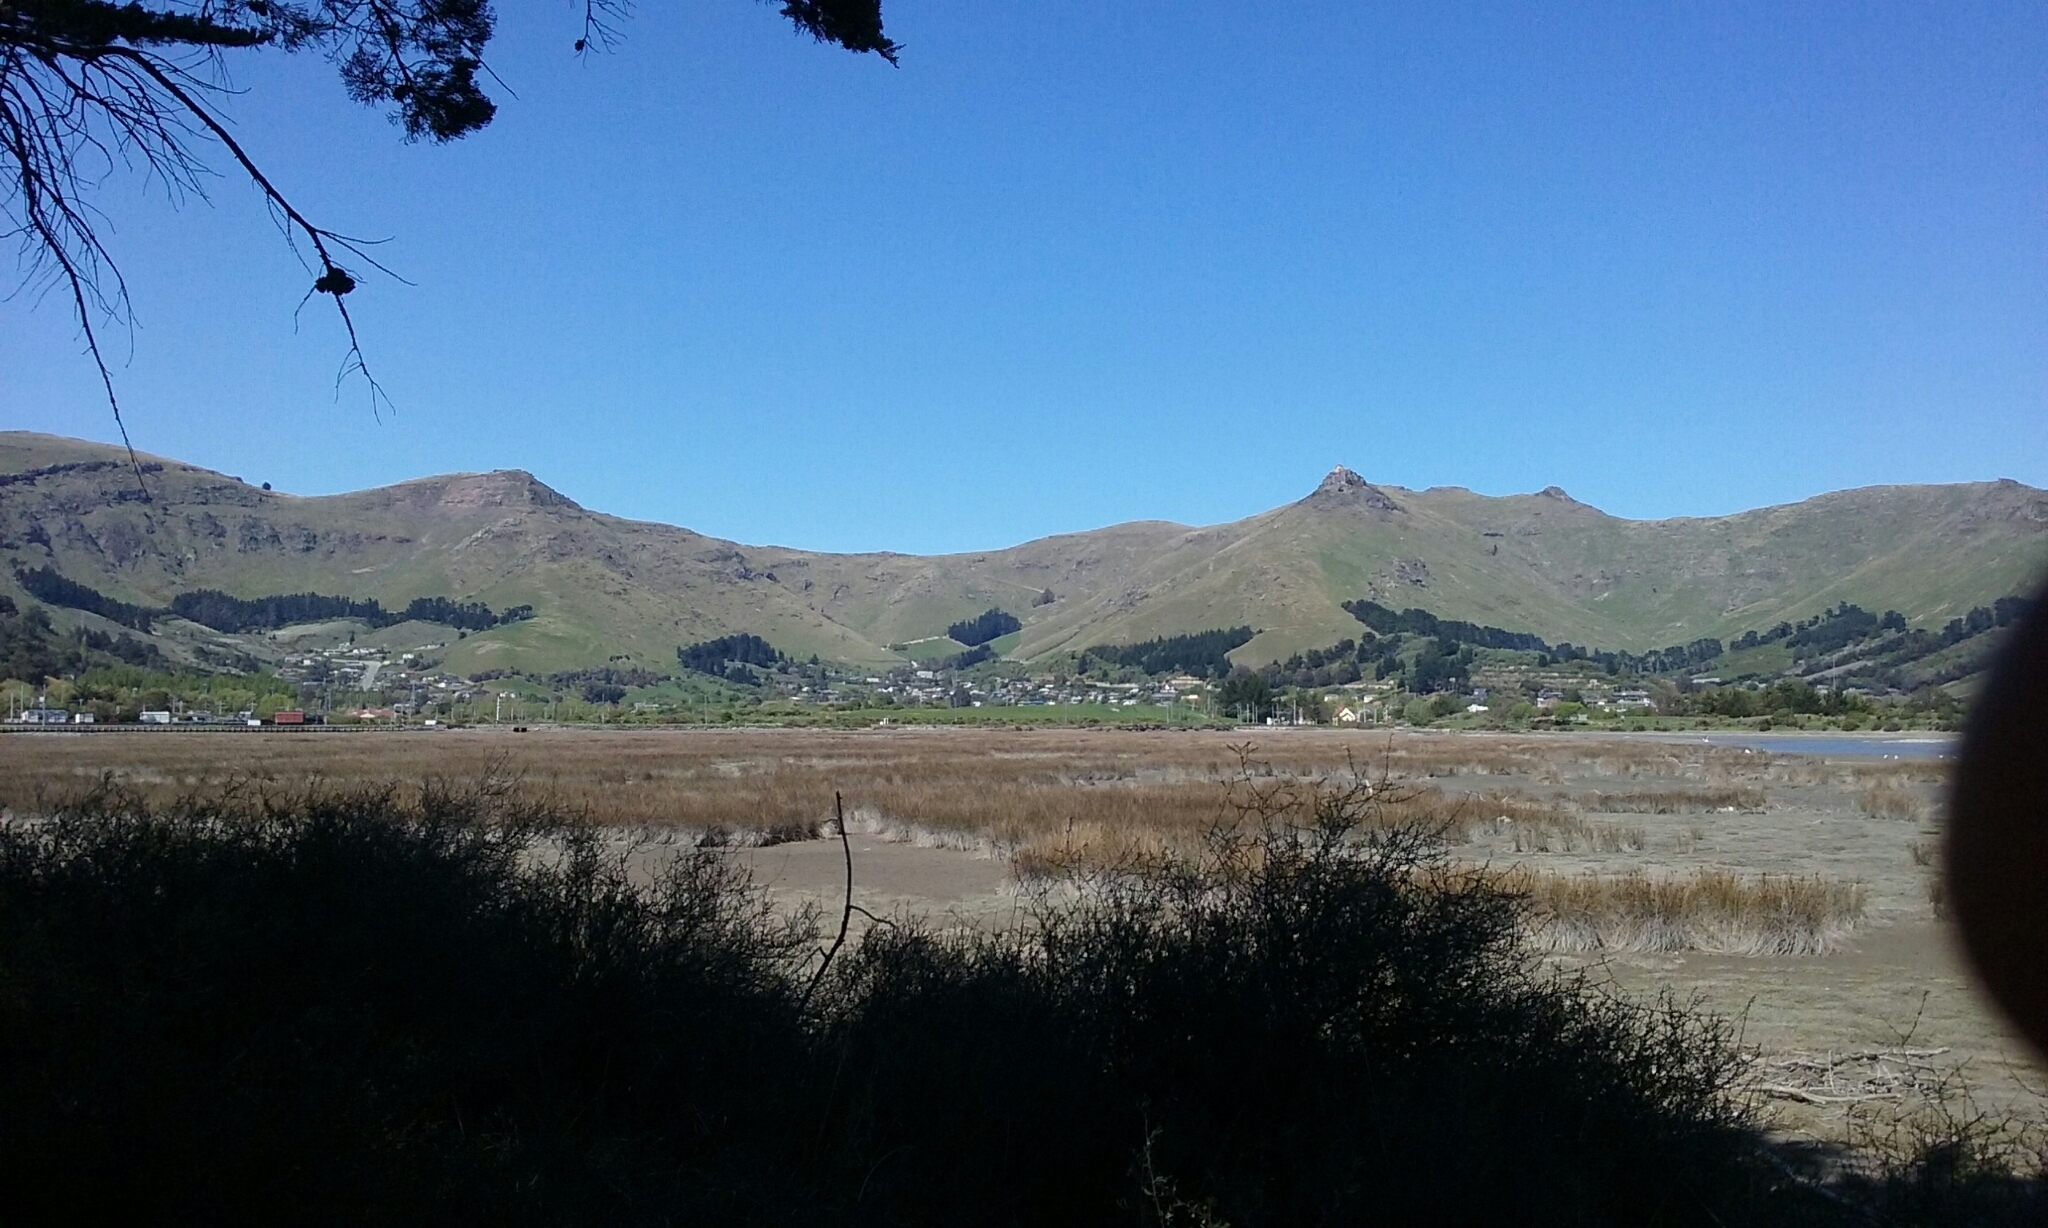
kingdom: Plantae
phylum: Tracheophyta
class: Liliopsida
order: Poales
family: Juncaceae
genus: Juncus
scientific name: Juncus kraussii
